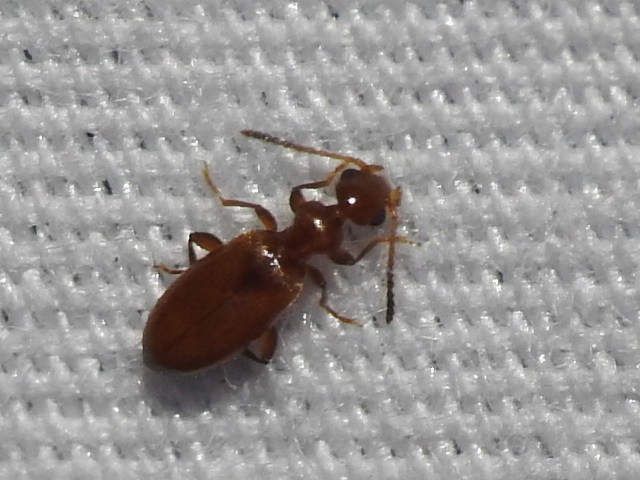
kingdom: Animalia
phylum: Arthropoda
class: Insecta
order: Coleoptera
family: Anthicidae
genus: Ischyropalpus
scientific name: Ischyropalpus subtilissimus
